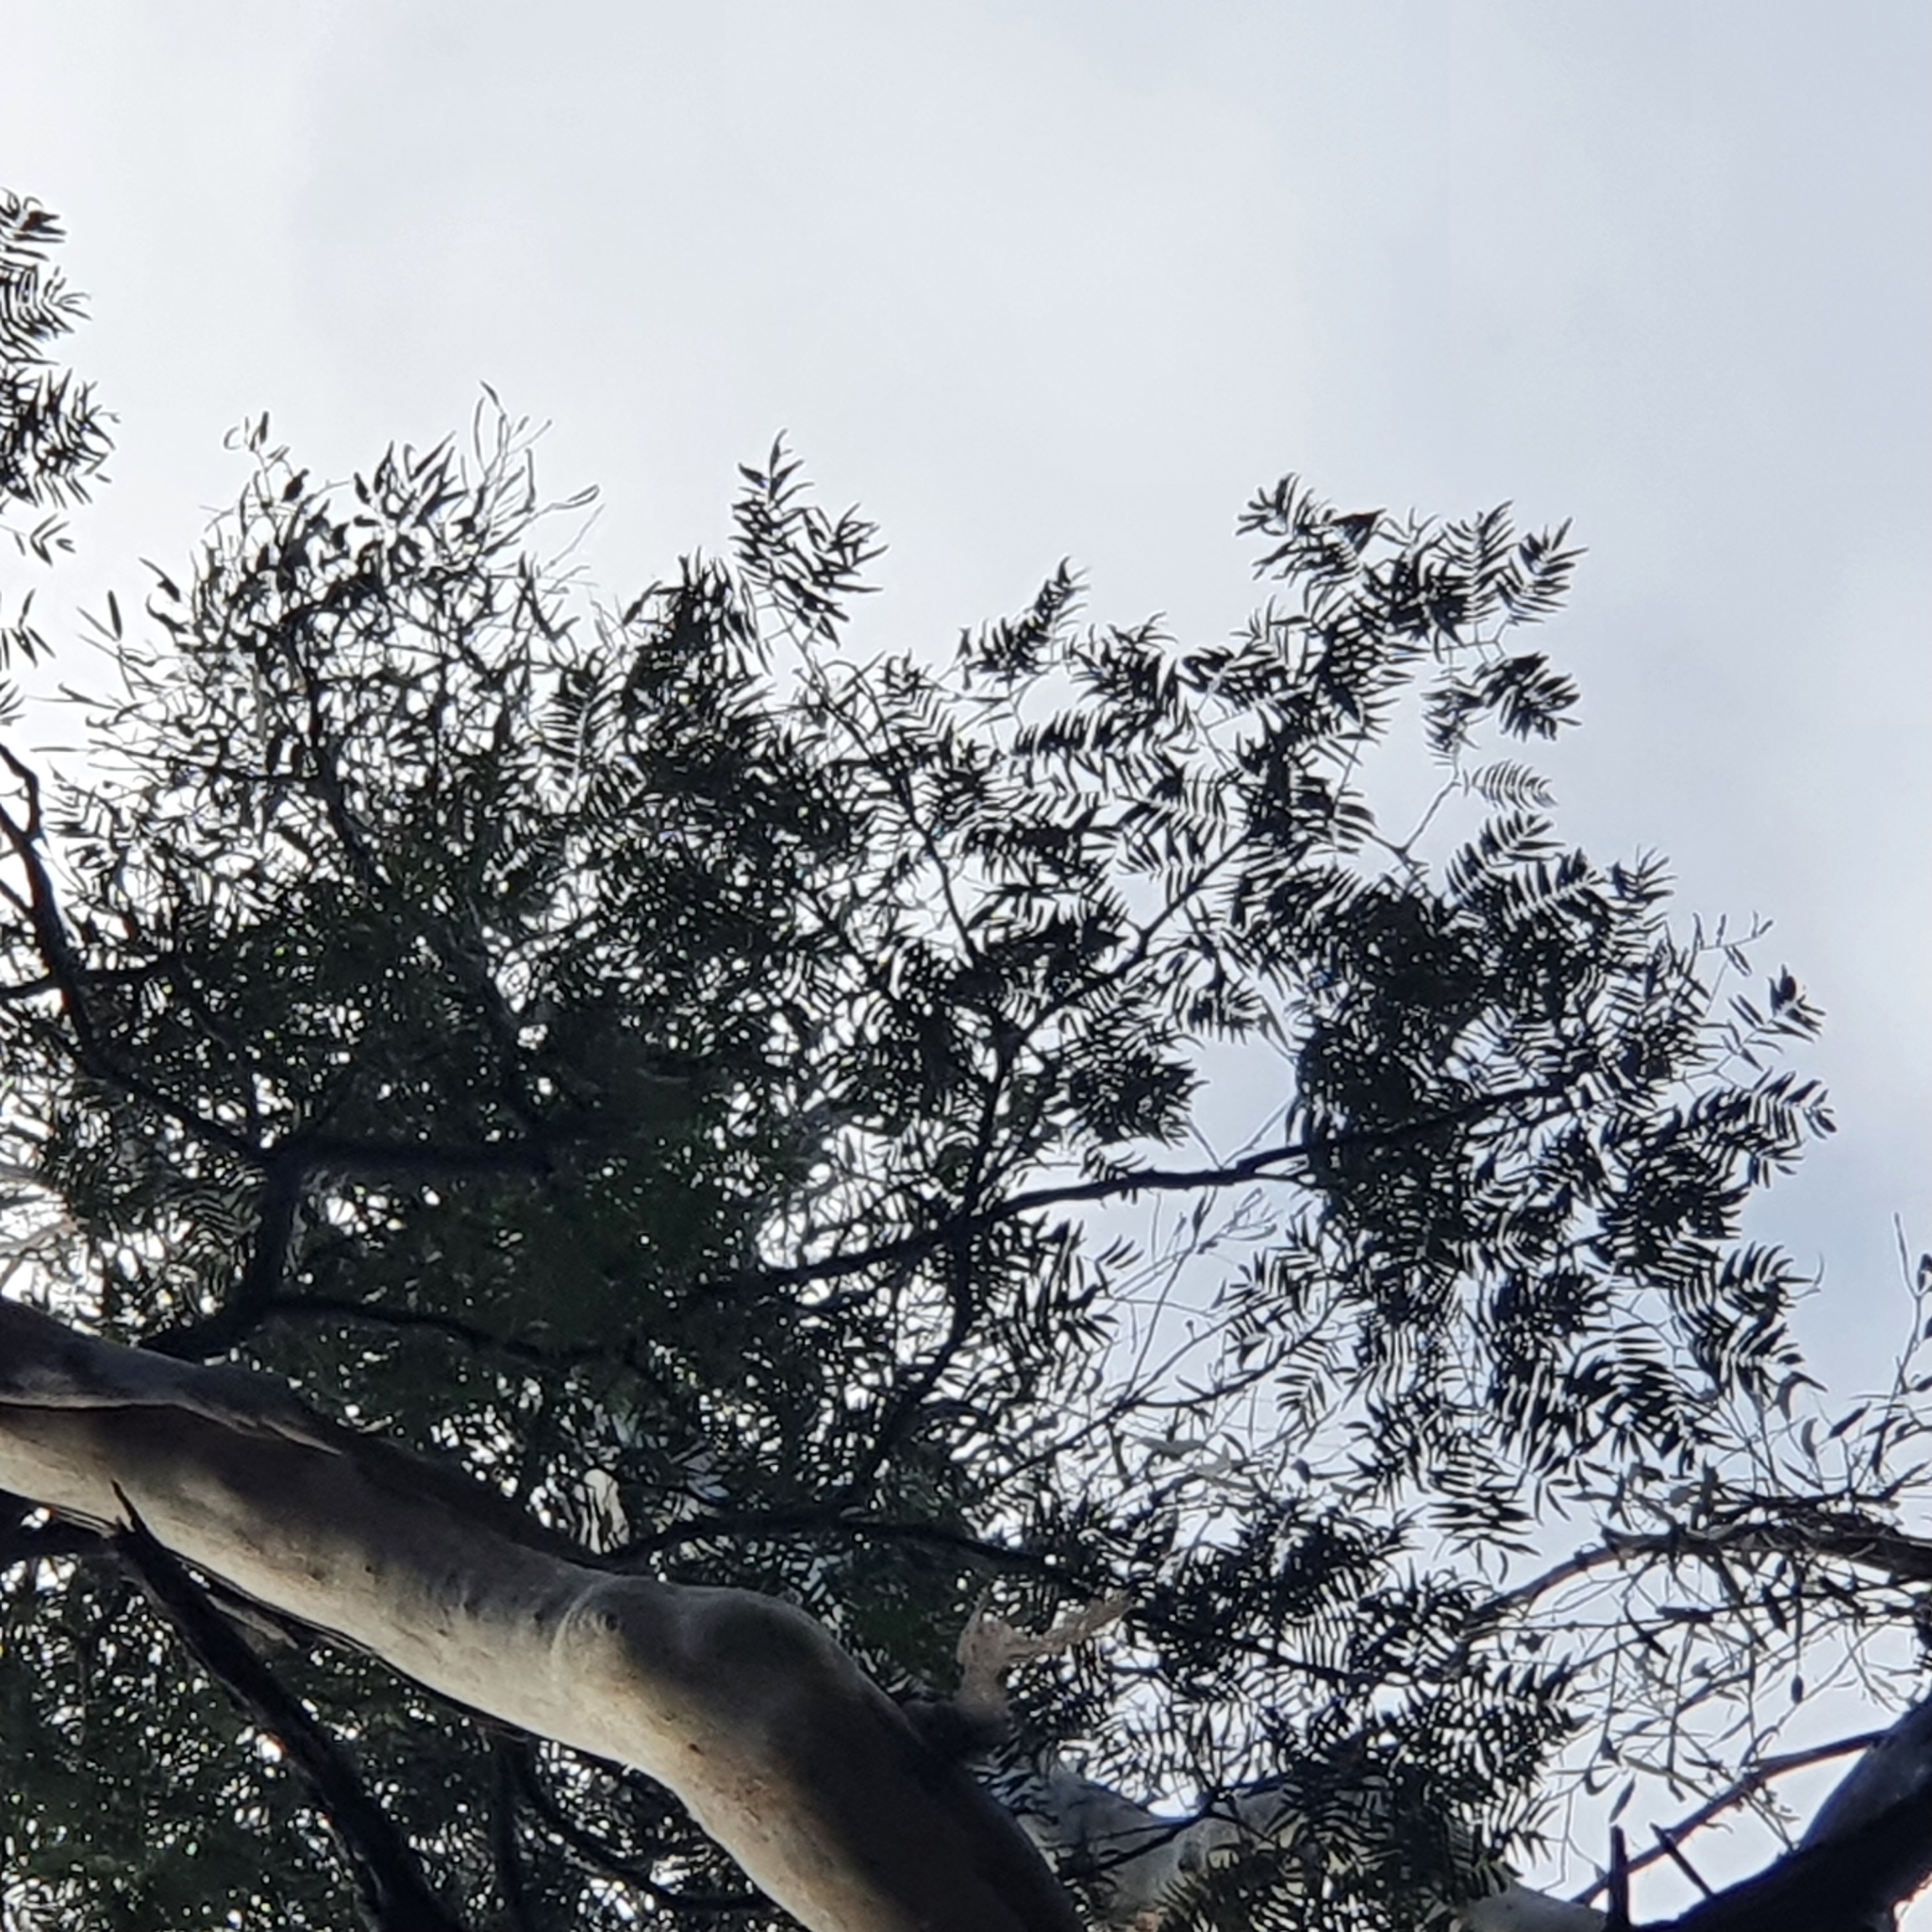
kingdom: Plantae
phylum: Tracheophyta
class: Magnoliopsida
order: Fabales
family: Fabaceae
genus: Acacia
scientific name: Acacia elata
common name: Cedar wattle
